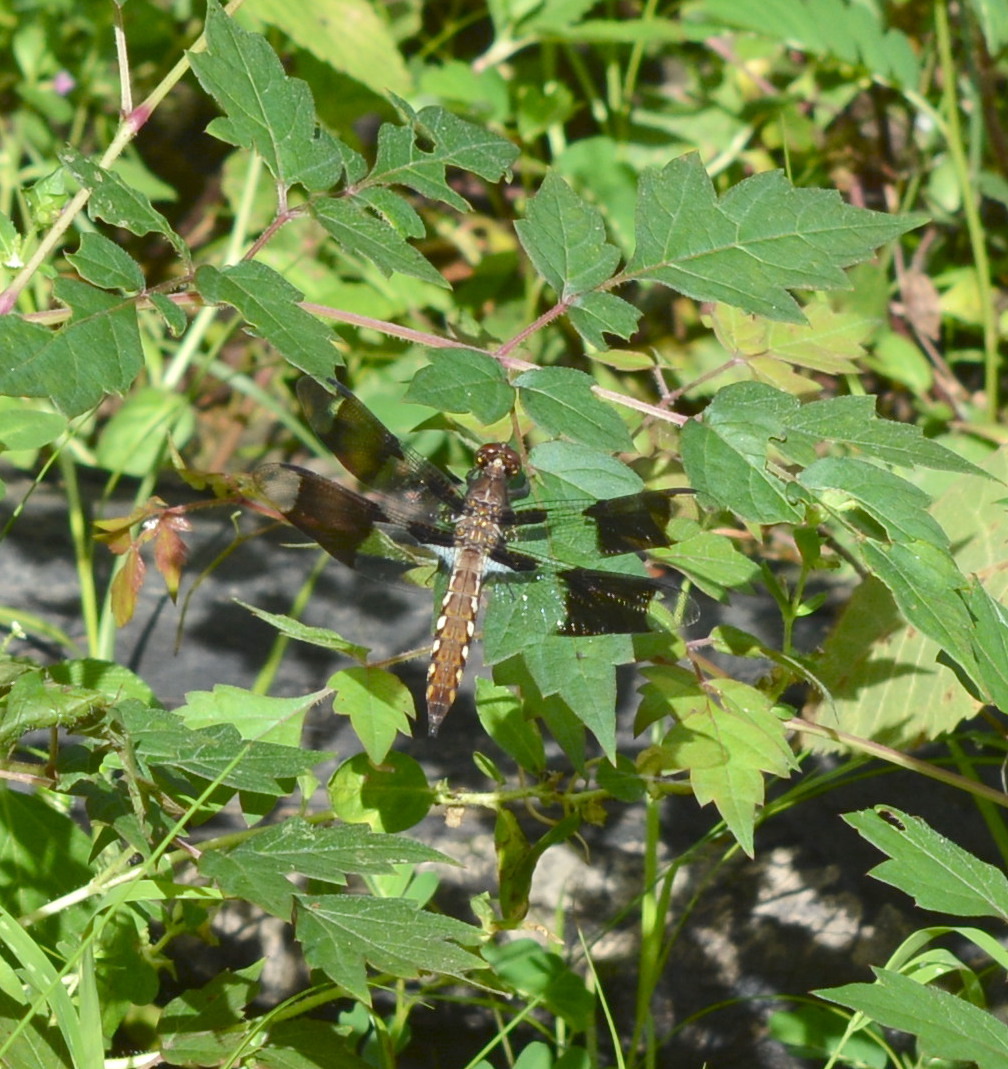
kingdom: Animalia
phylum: Arthropoda
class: Insecta
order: Odonata
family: Libellulidae
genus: Plathemis
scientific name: Plathemis lydia
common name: Common whitetail
